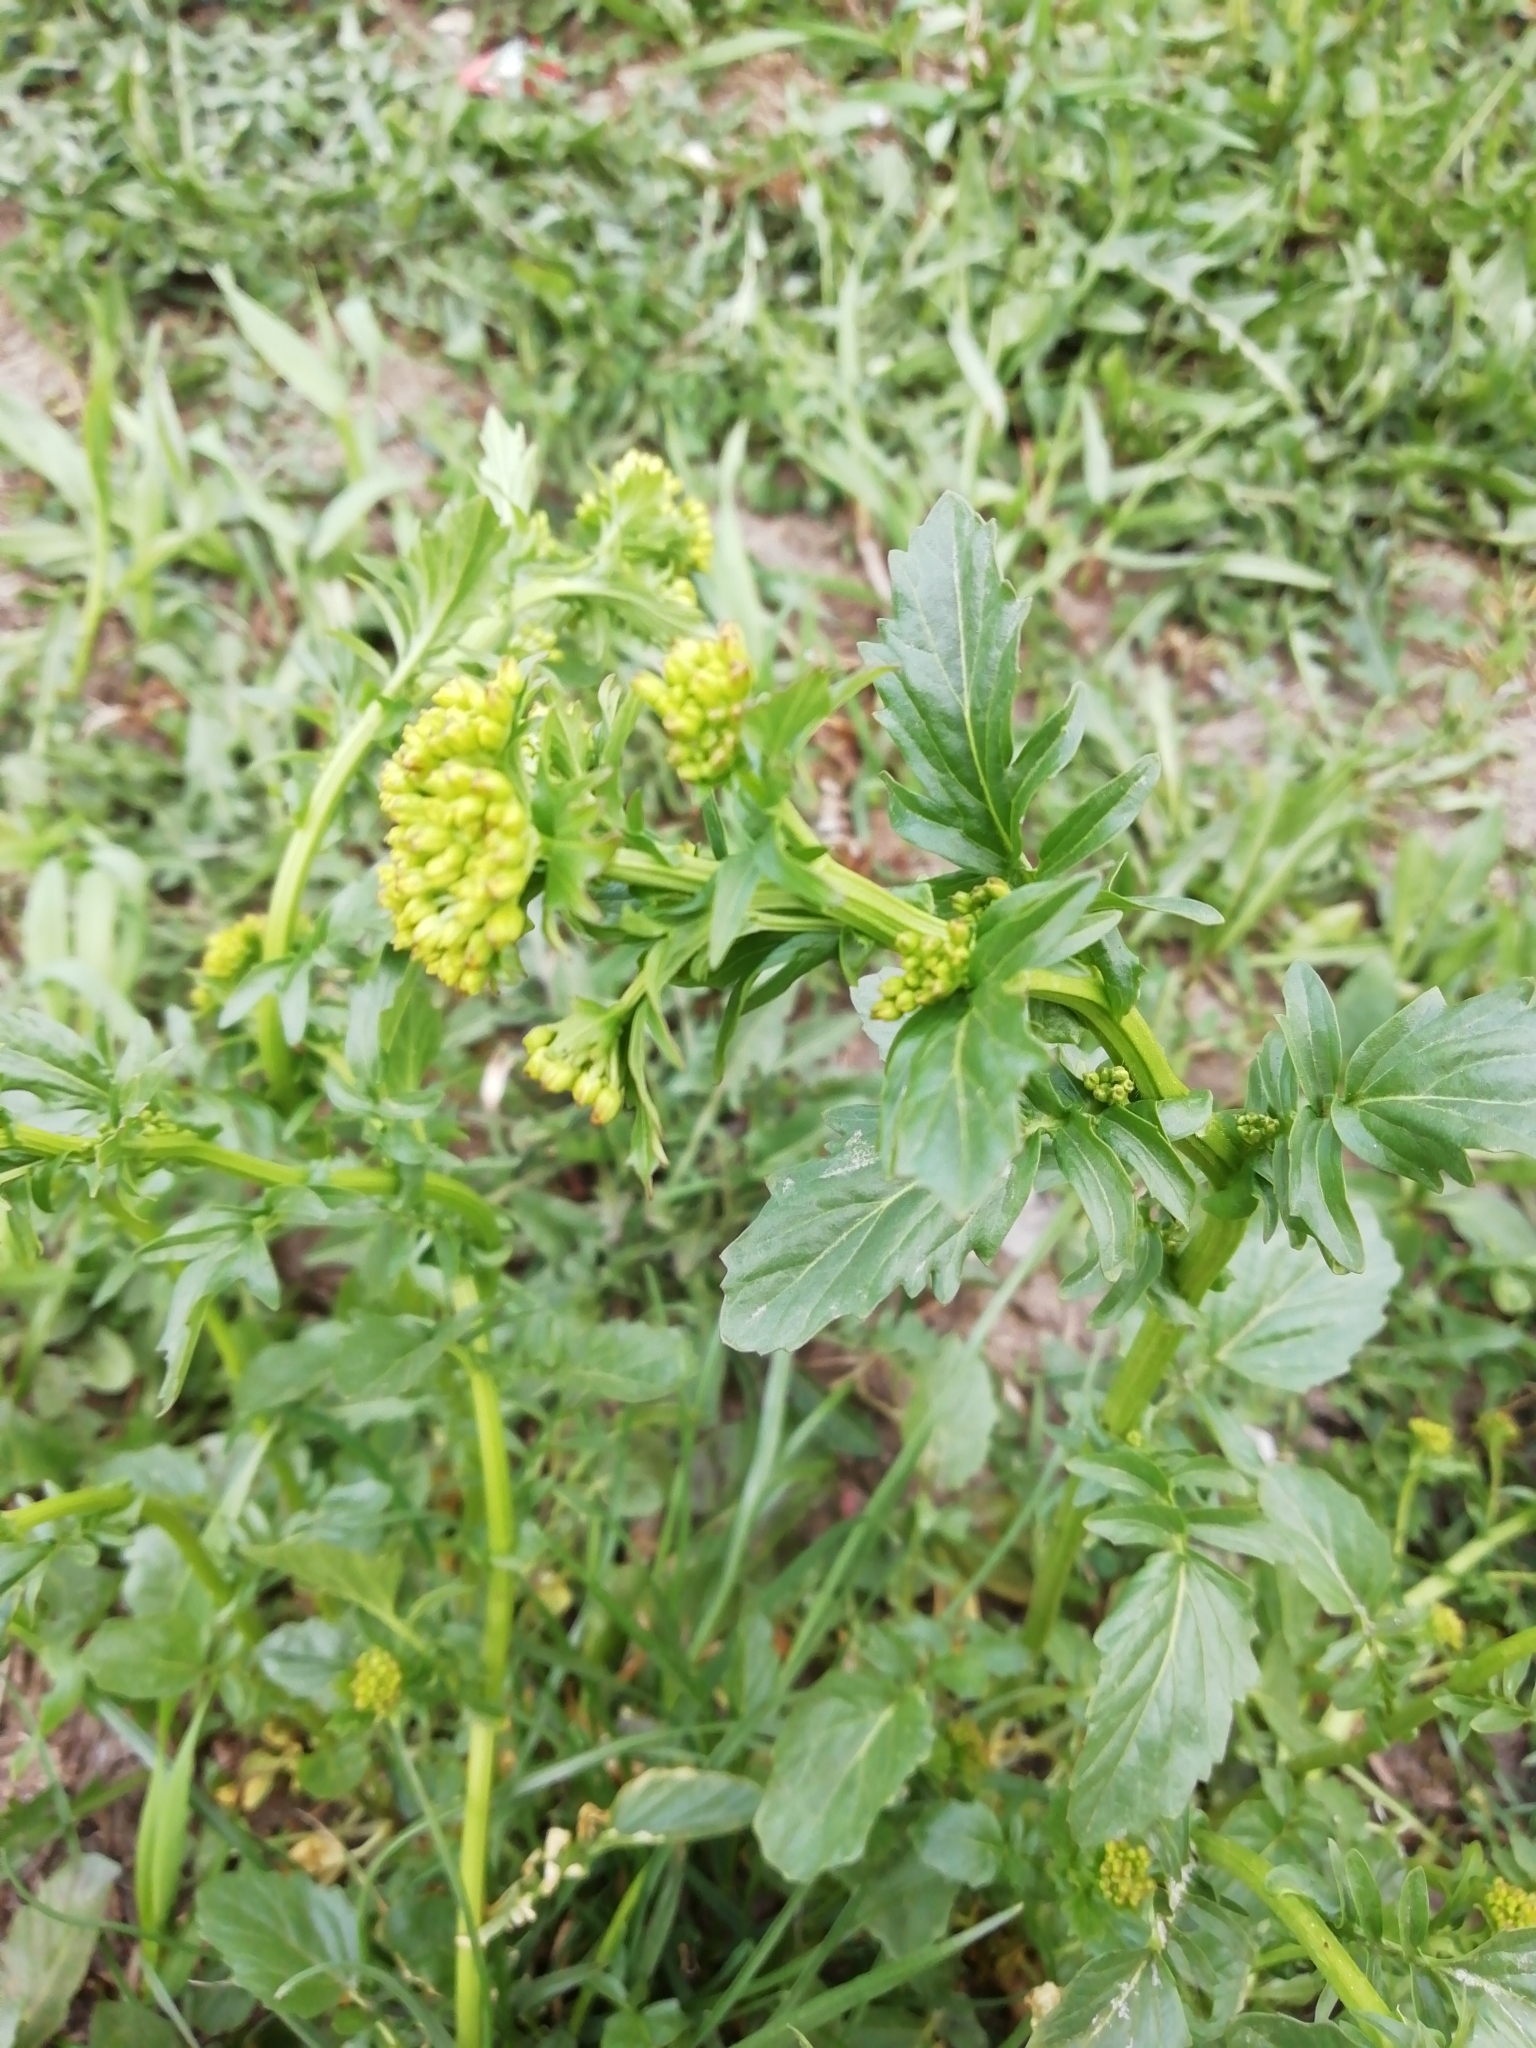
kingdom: Plantae
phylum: Tracheophyta
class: Magnoliopsida
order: Brassicales
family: Brassicaceae
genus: Barbarea
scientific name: Barbarea vulgaris
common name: Cressy-greens
